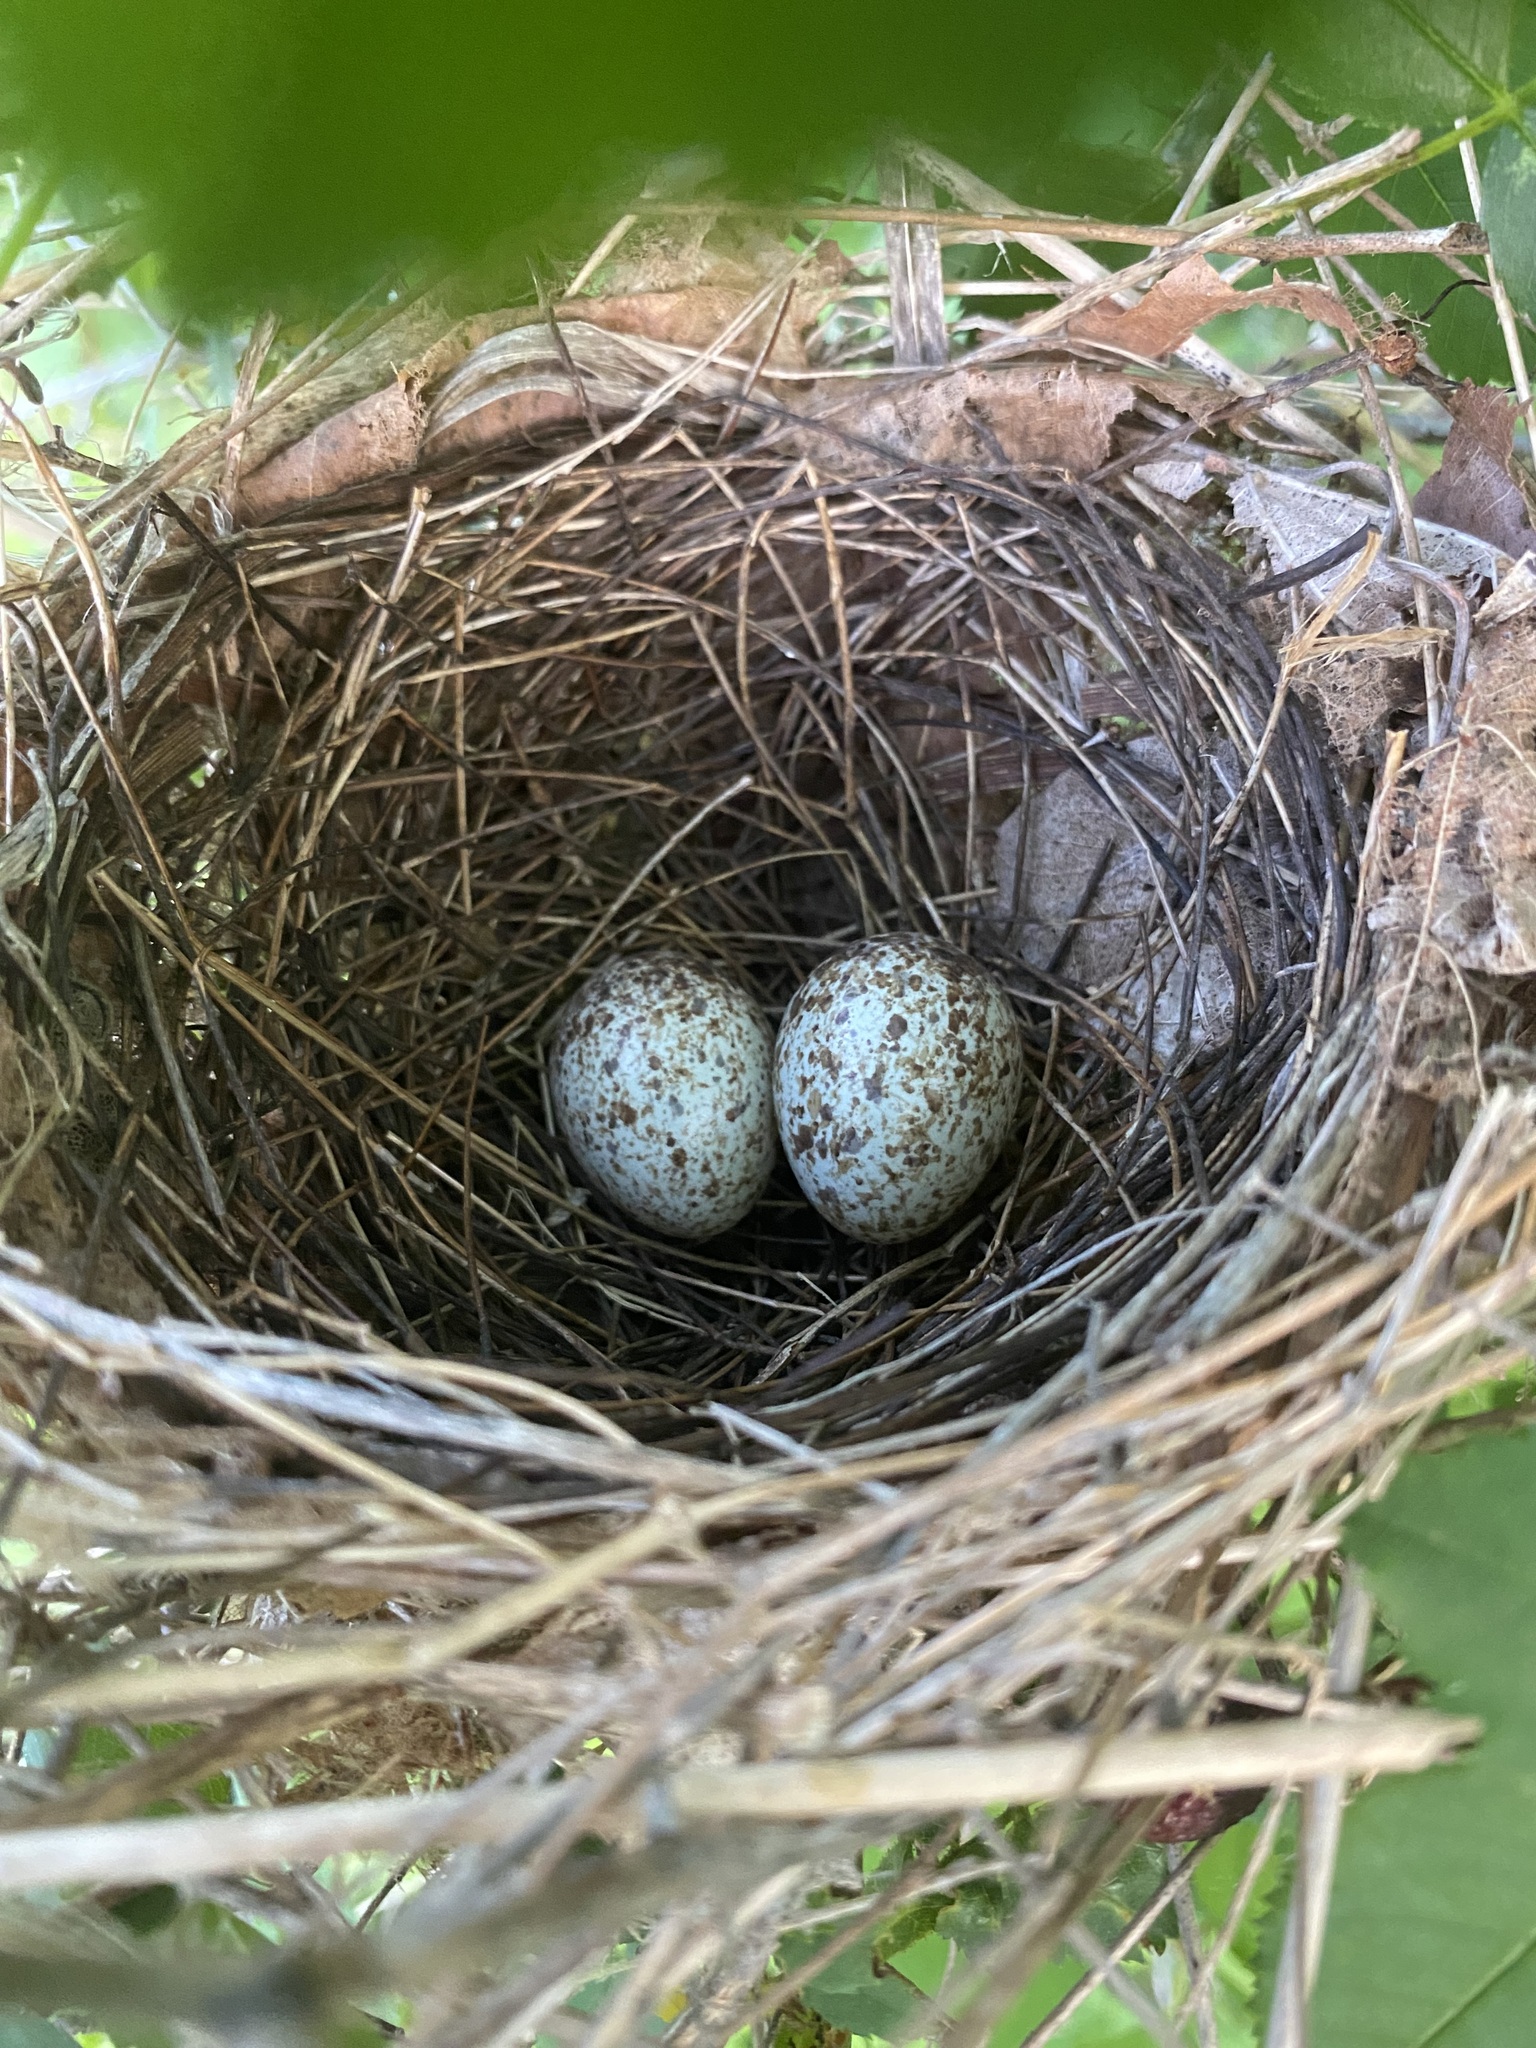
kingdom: Animalia
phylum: Chordata
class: Aves
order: Passeriformes
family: Cardinalidae
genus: Cardinalis
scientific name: Cardinalis cardinalis
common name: Northern cardinal
